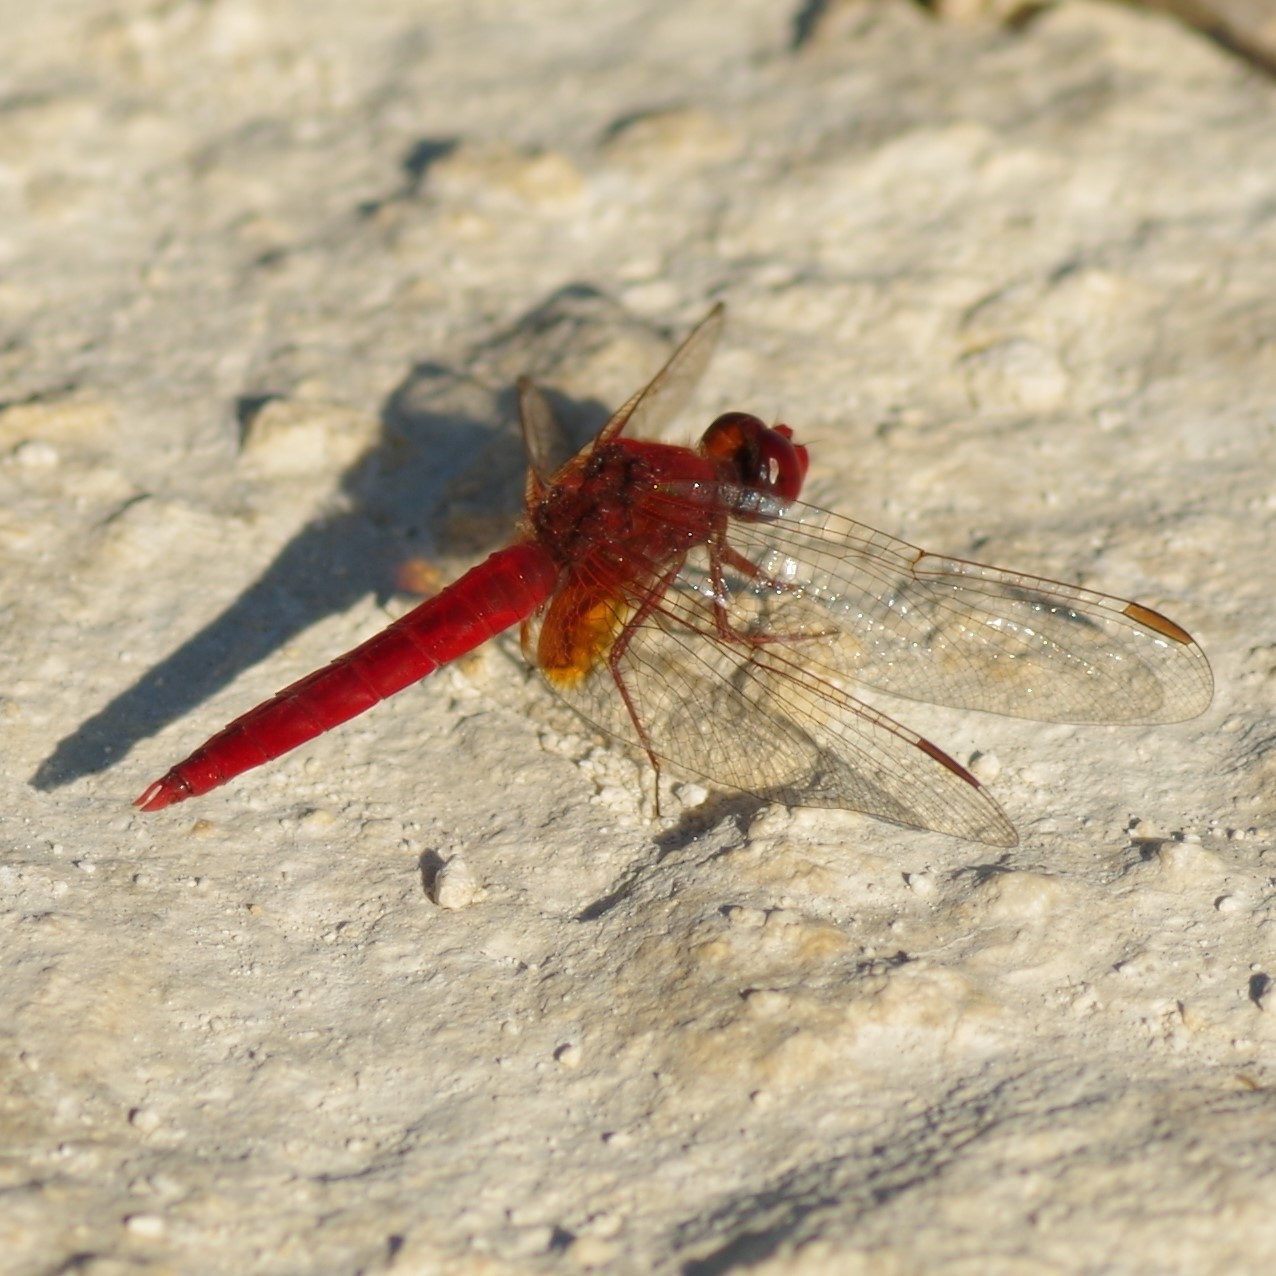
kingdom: Animalia
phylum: Arthropoda
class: Insecta
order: Odonata
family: Libellulidae
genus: Crocothemis
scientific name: Crocothemis erythraea
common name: Scarlet dragonfly
